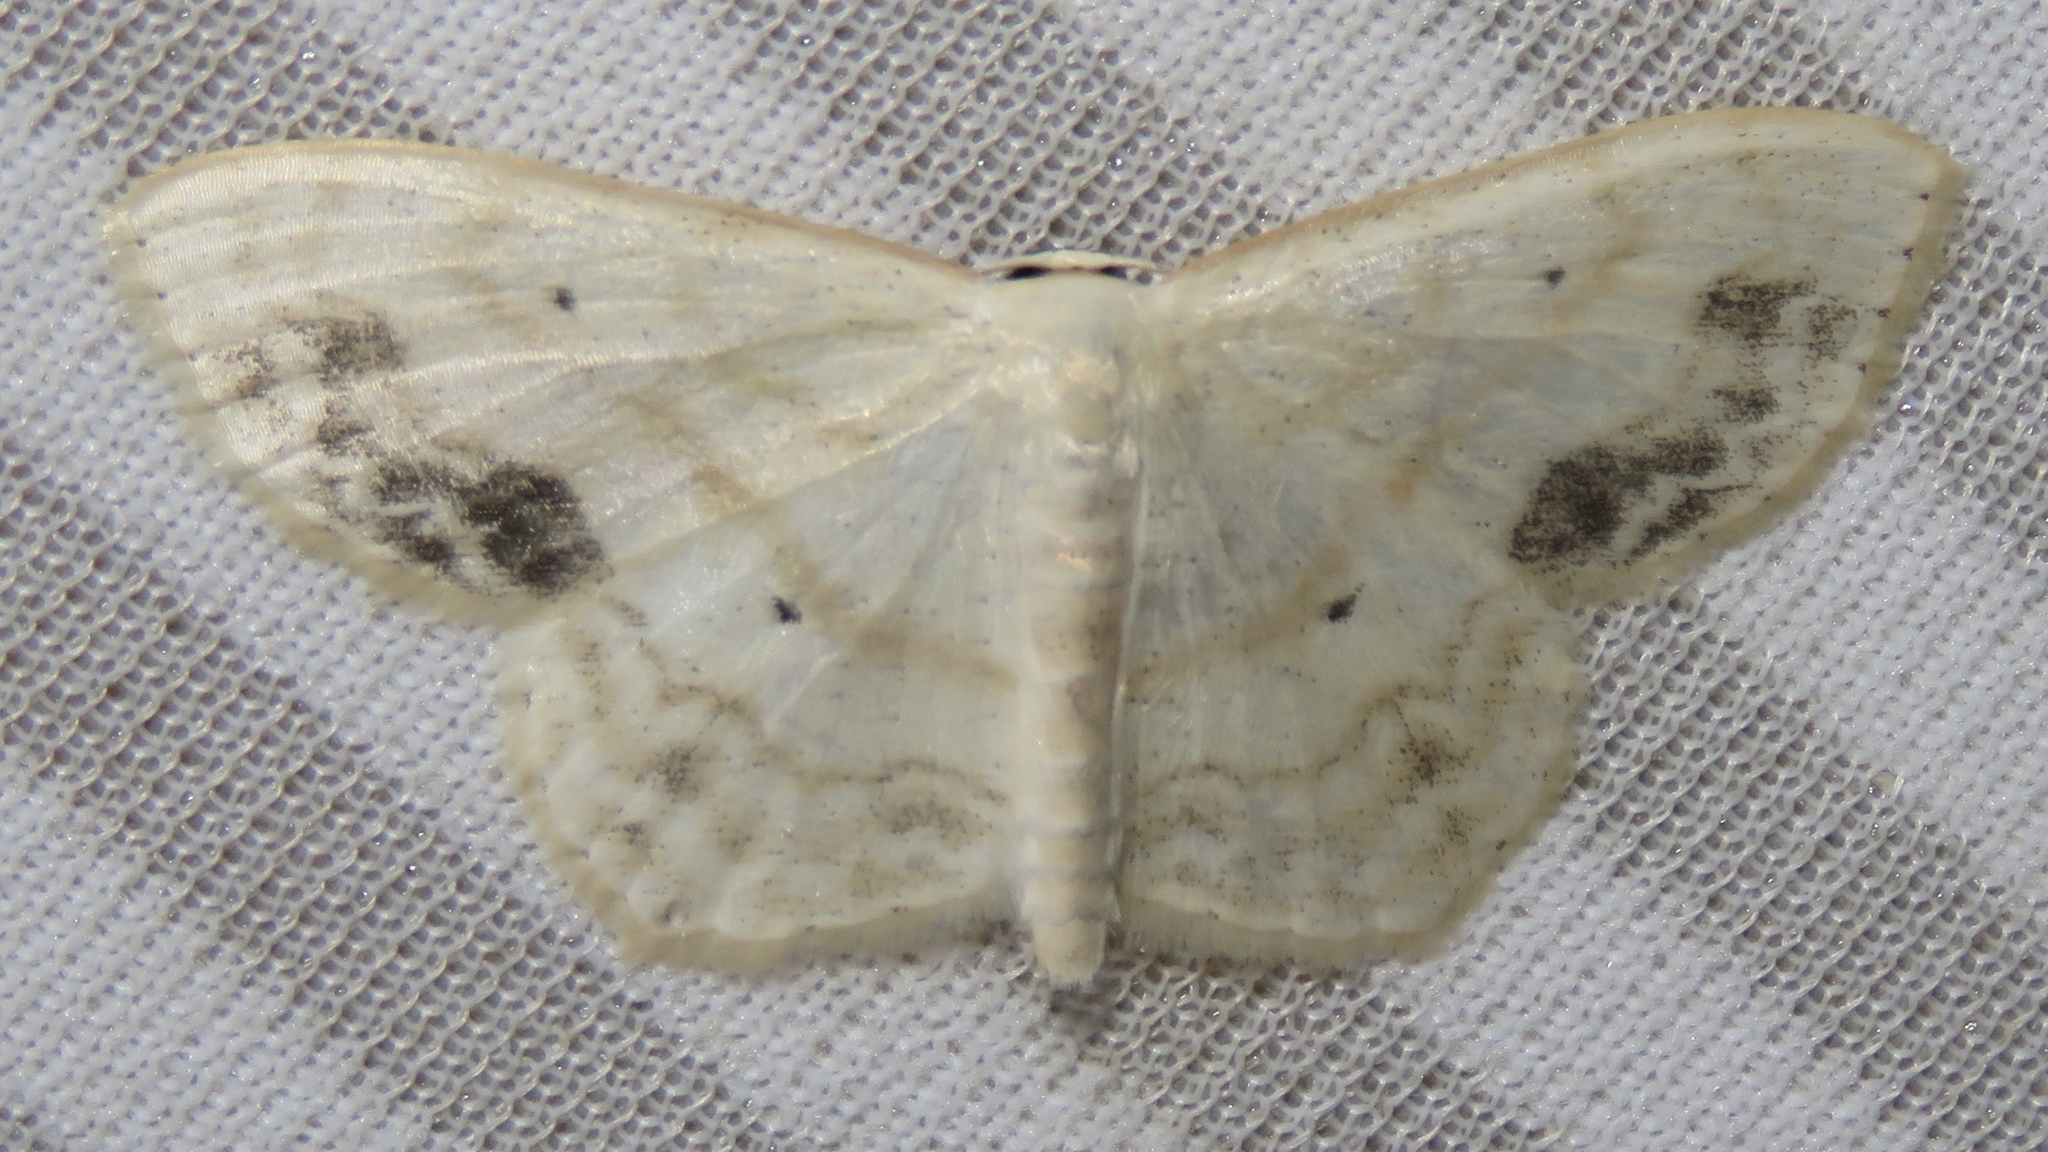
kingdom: Animalia
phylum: Arthropoda
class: Insecta
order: Lepidoptera
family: Geometridae
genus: Scopula
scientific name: Scopula limboundata
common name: Large lace border
